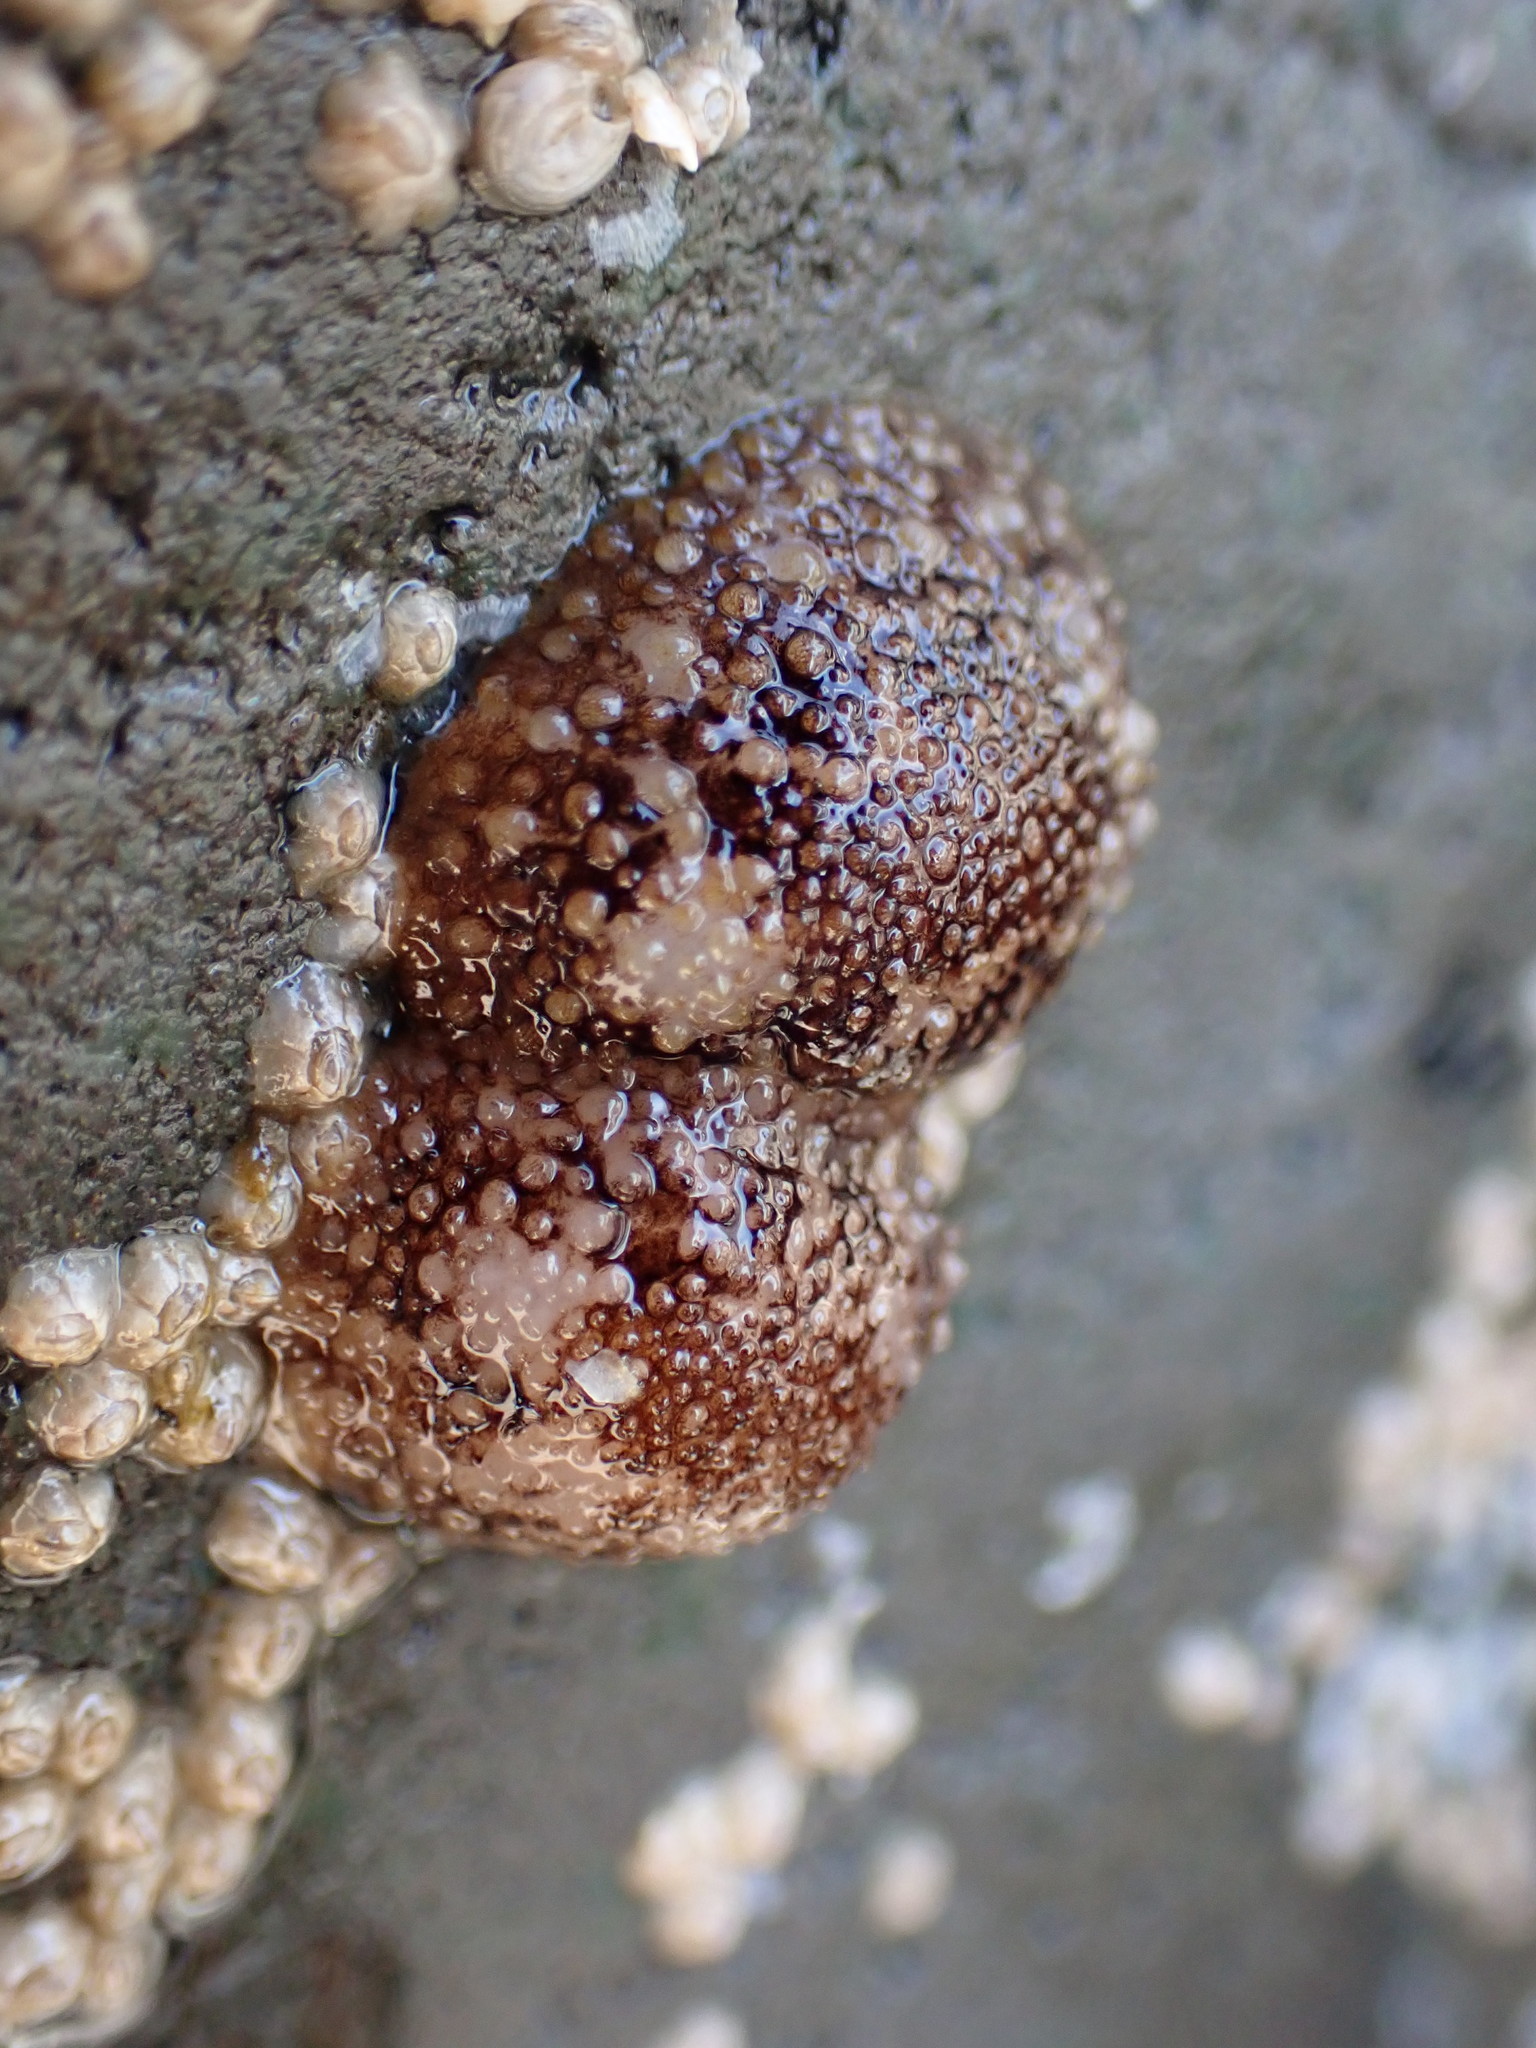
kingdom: Animalia
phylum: Mollusca
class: Gastropoda
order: Nudibranchia
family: Onchidorididae
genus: Onchidoris
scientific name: Onchidoris bilamellata
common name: Barnacle-eating onchidoris
